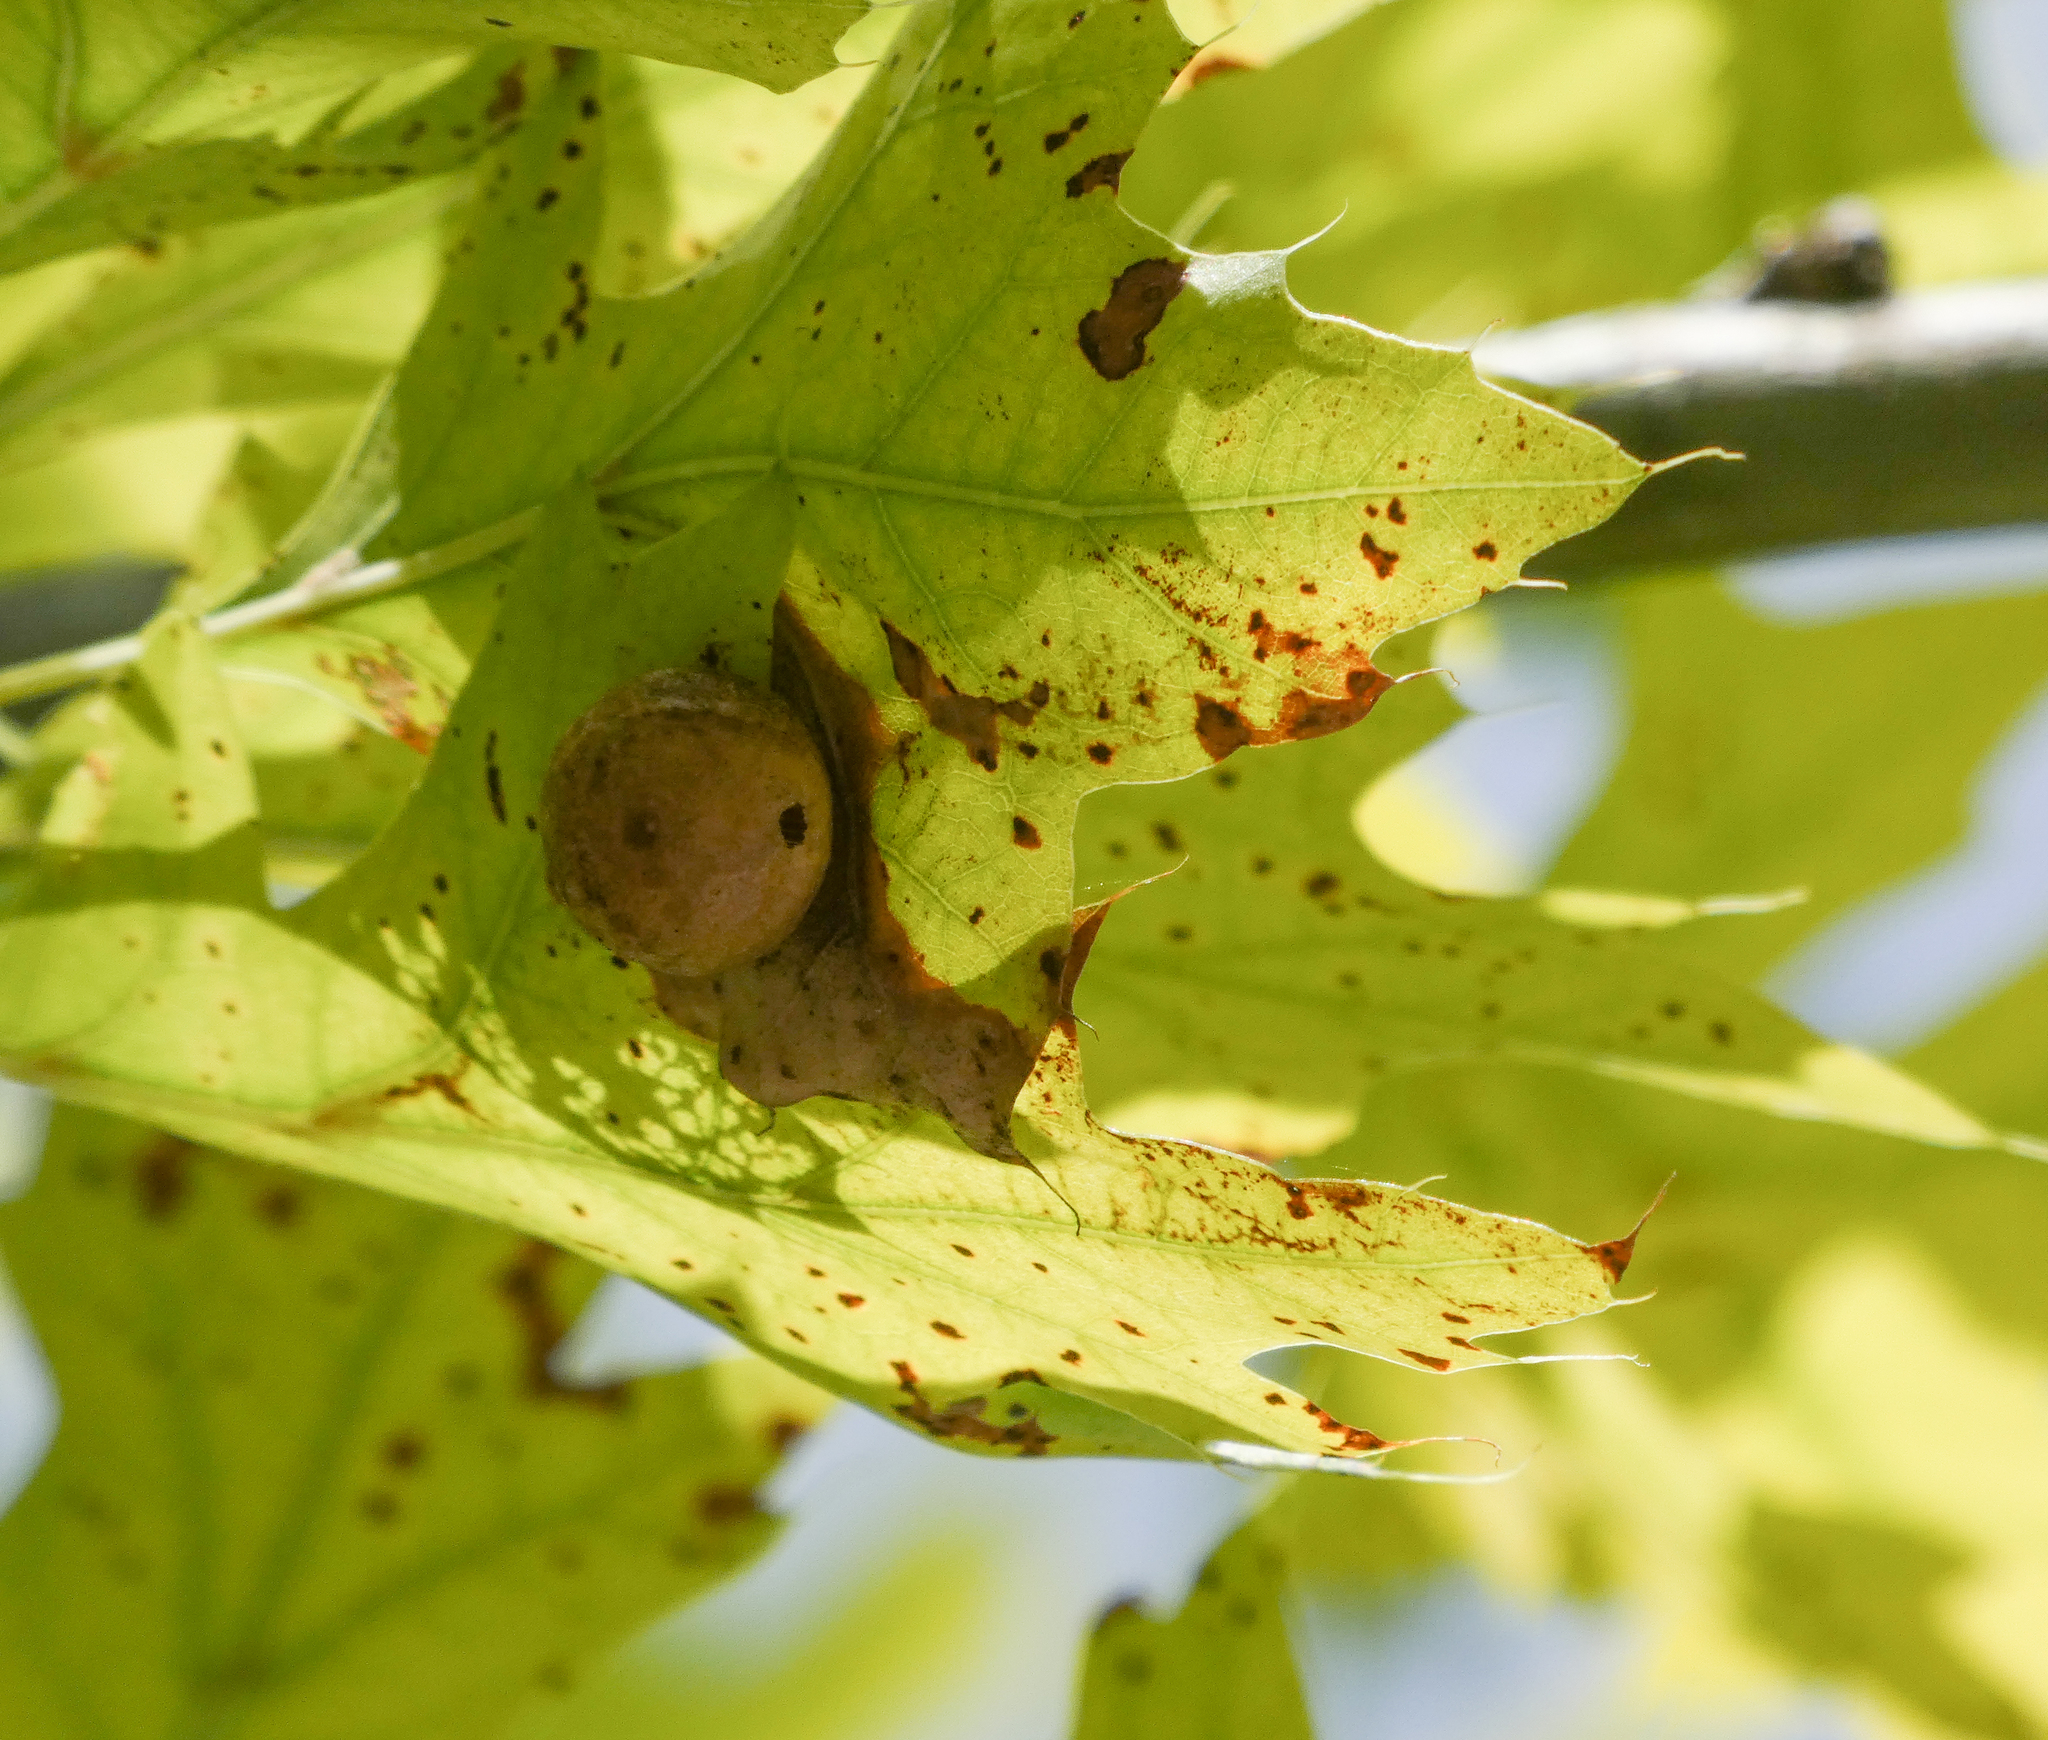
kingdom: Animalia
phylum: Arthropoda
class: Insecta
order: Hymenoptera
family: Cynipidae
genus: Amphibolips
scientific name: Amphibolips
